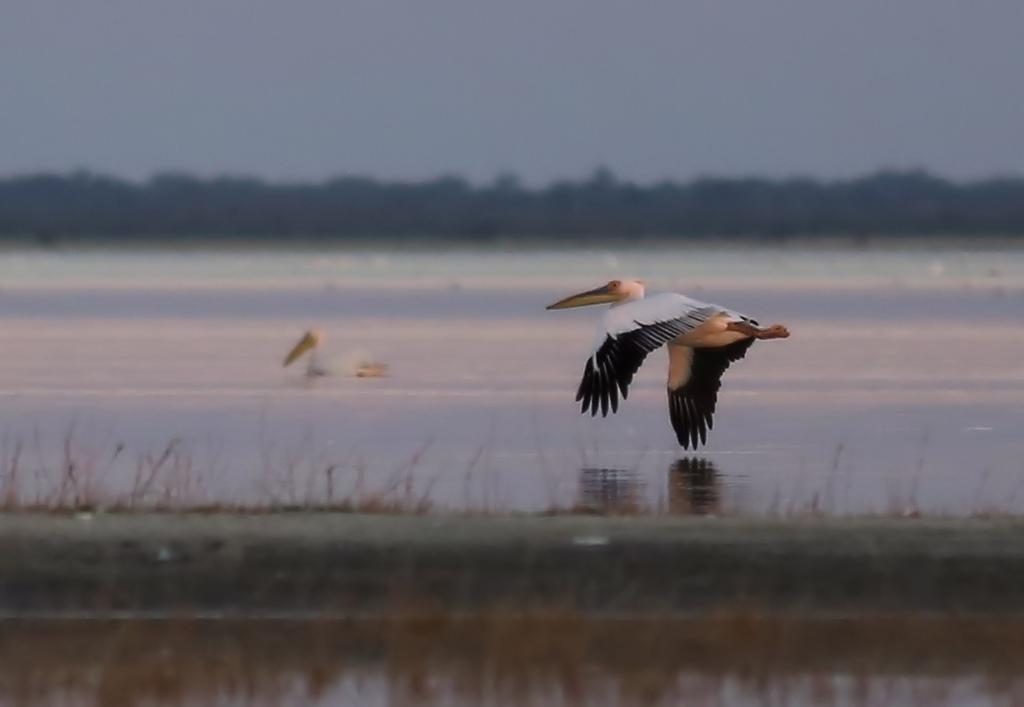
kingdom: Animalia
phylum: Chordata
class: Aves
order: Pelecaniformes
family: Pelecanidae
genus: Pelecanus
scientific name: Pelecanus onocrotalus
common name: Great white pelican
